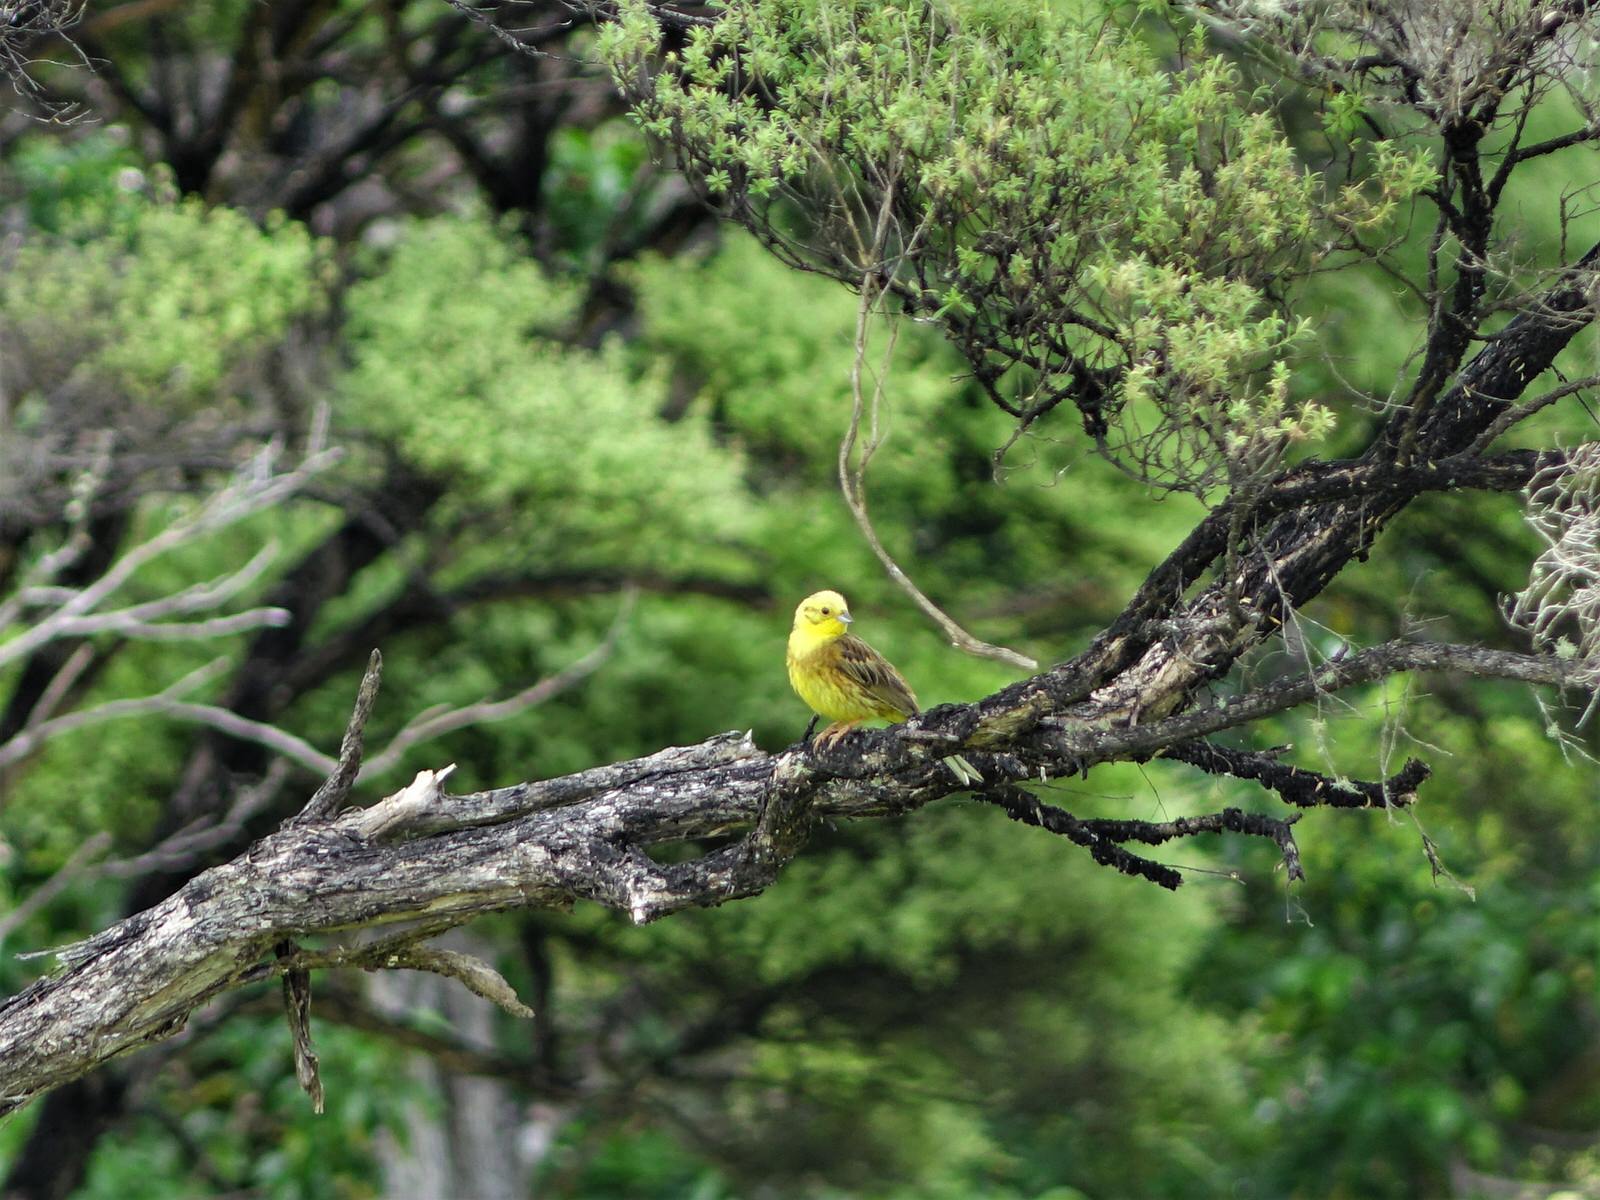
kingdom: Animalia
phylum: Chordata
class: Aves
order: Passeriformes
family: Emberizidae
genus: Emberiza
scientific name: Emberiza citrinella
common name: Yellowhammer
